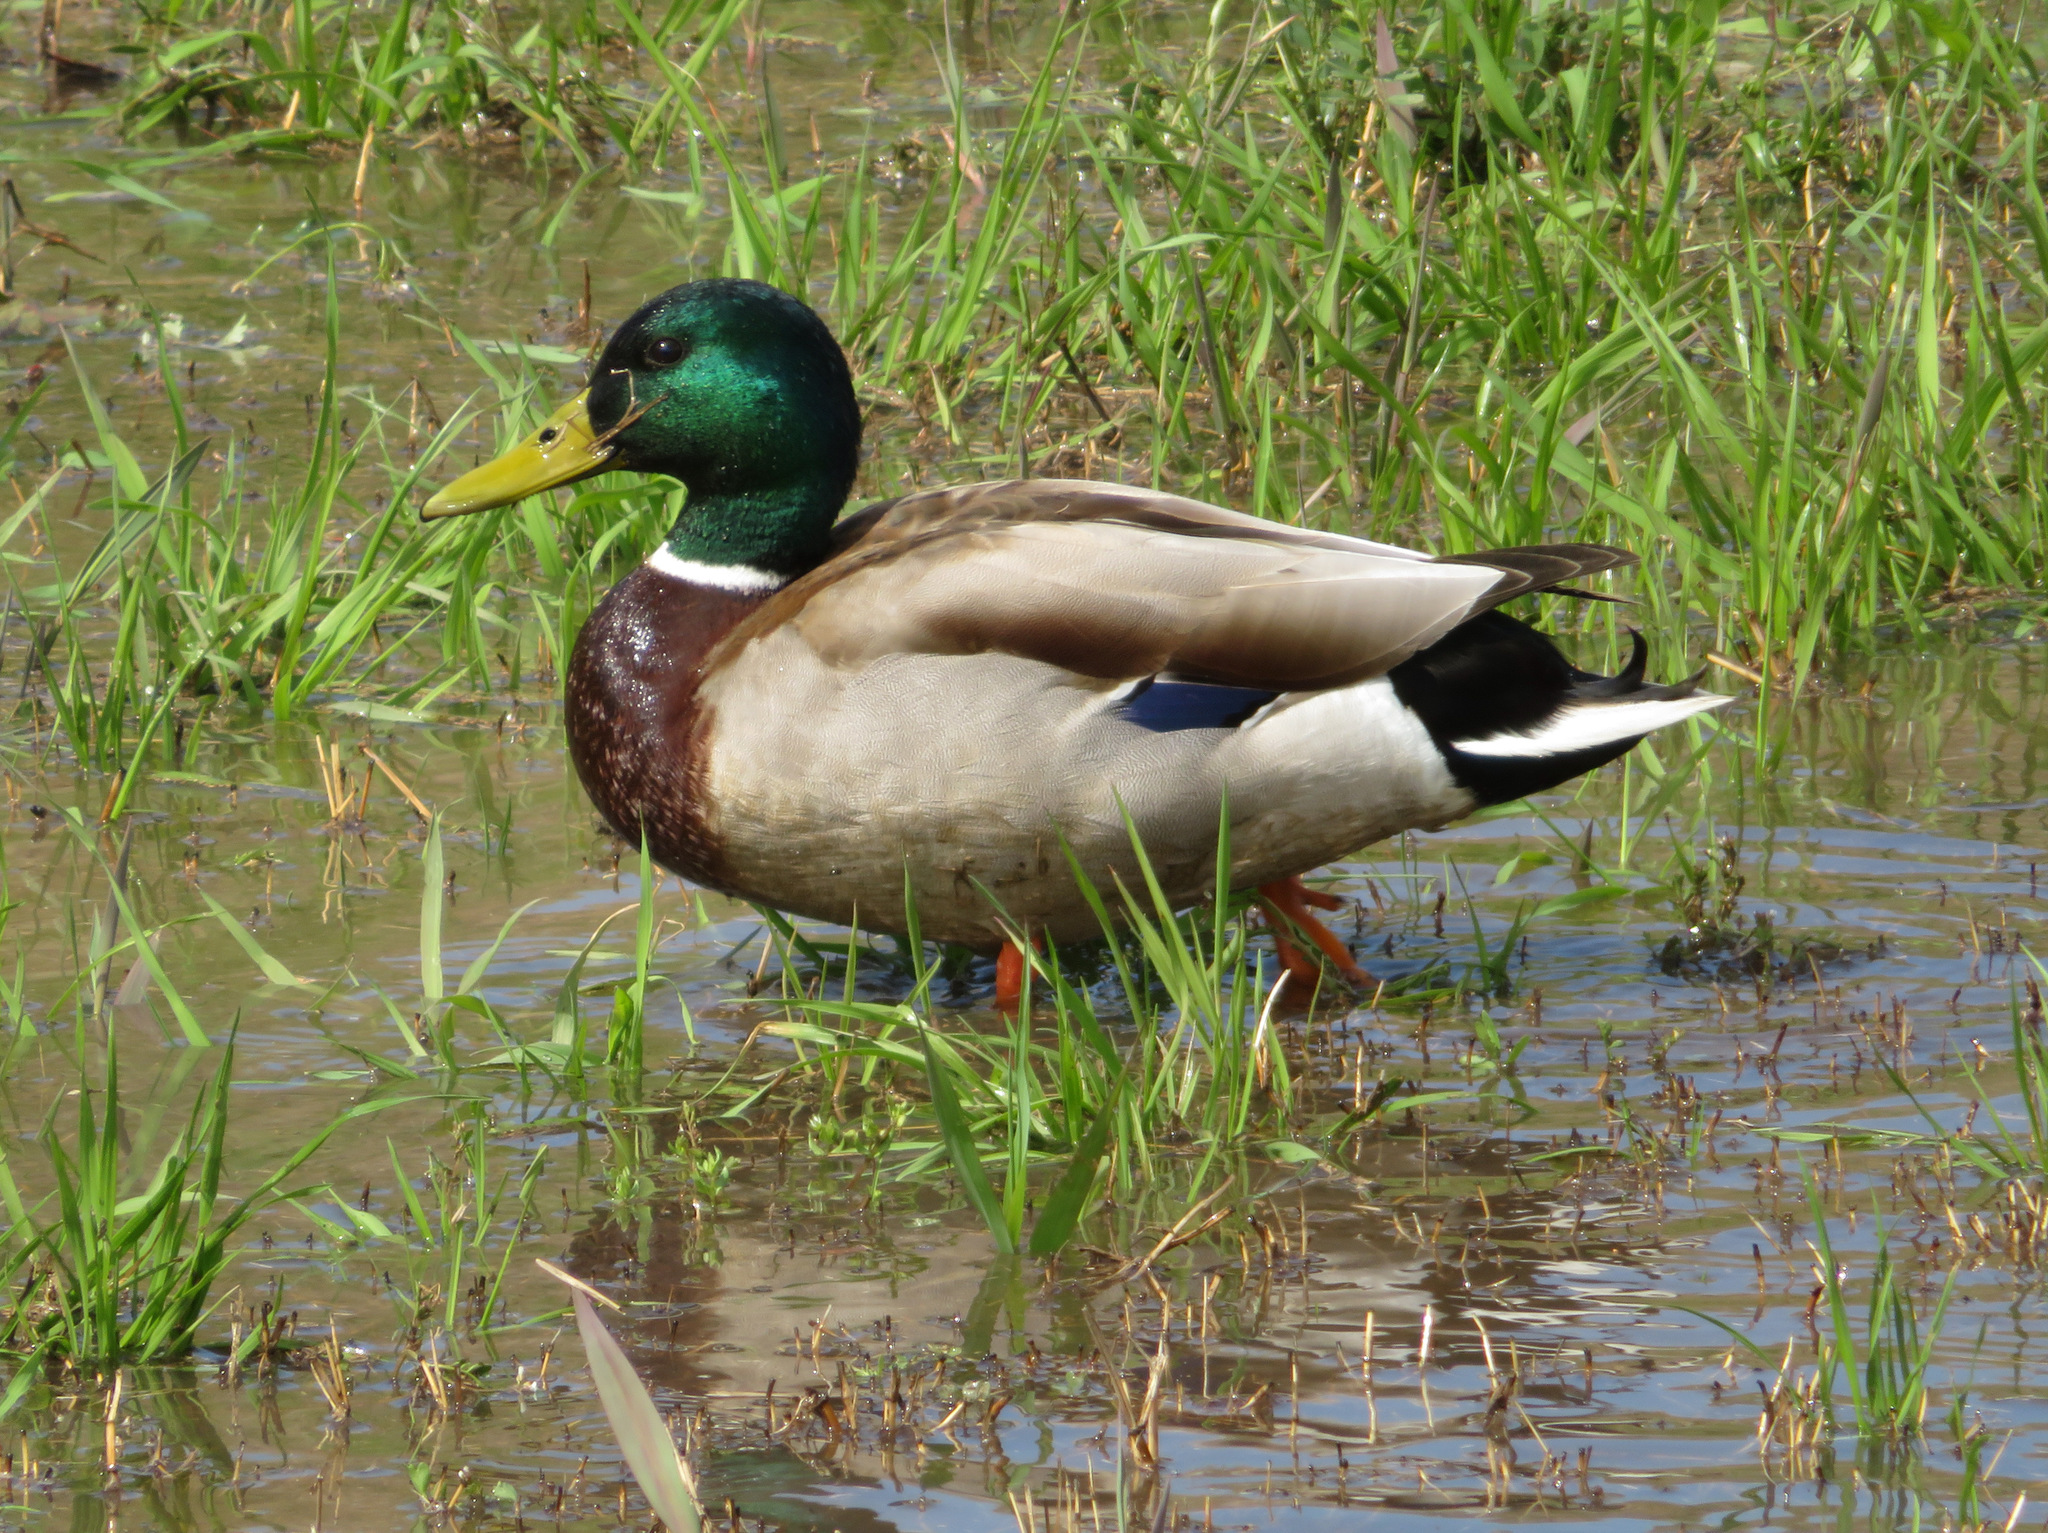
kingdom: Animalia
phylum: Chordata
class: Aves
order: Anseriformes
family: Anatidae
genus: Anas
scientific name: Anas platyrhynchos
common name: Mallard
